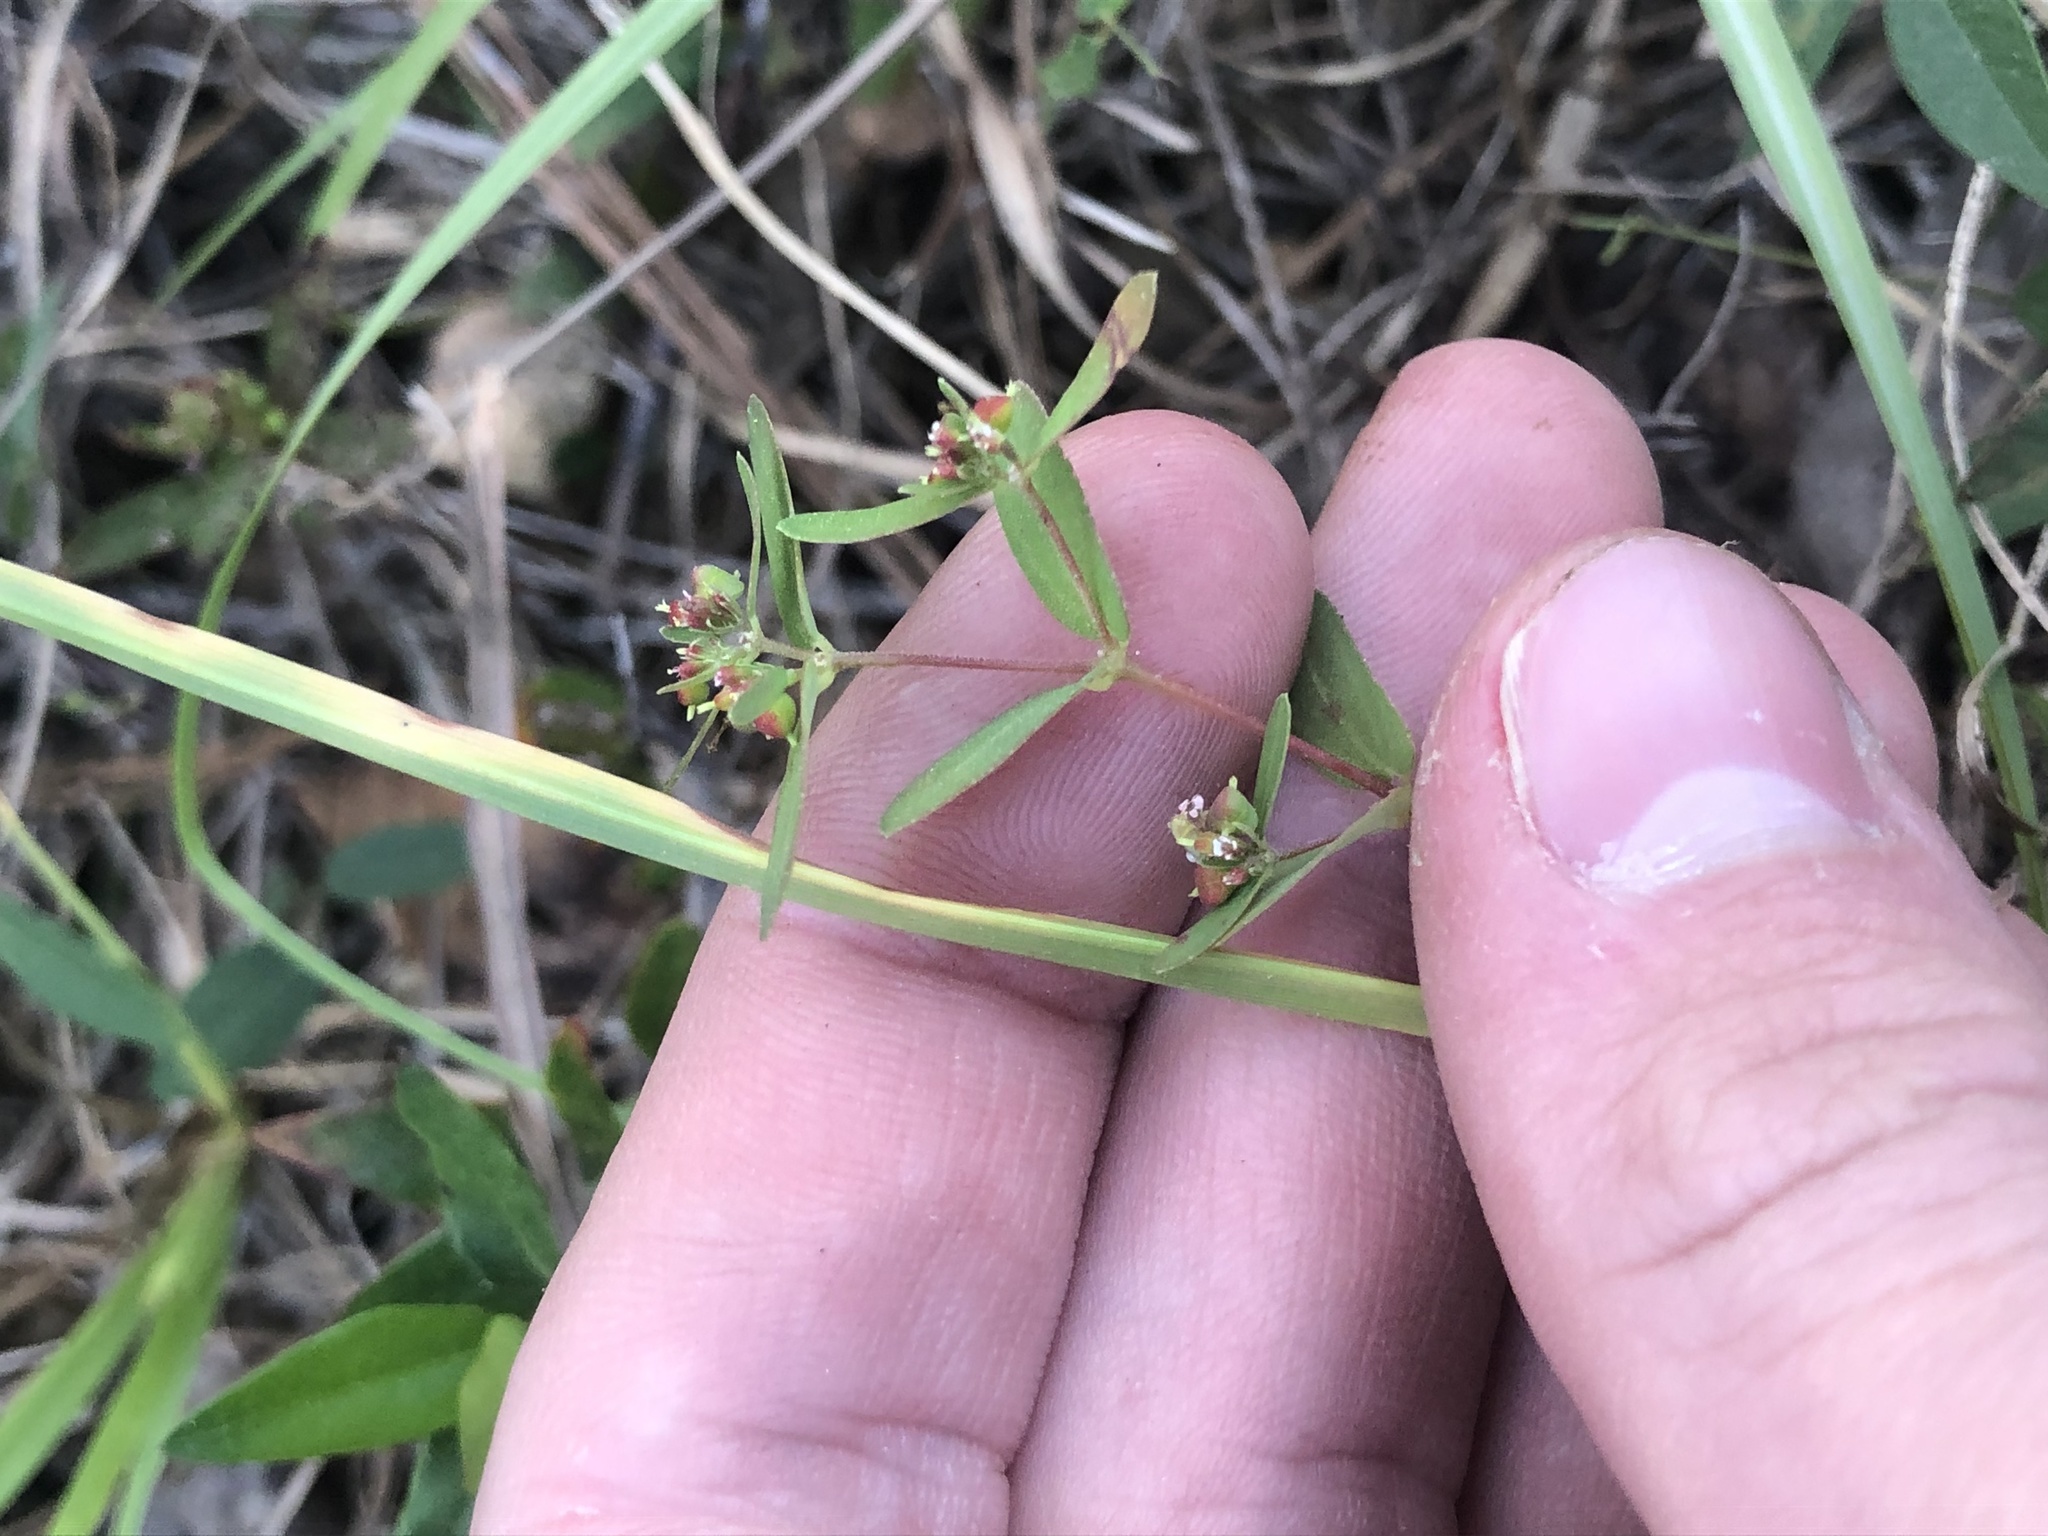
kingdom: Plantae
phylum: Tracheophyta
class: Magnoliopsida
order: Malpighiales
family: Euphorbiaceae
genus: Euphorbia
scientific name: Euphorbia nutans
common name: Eyebane
